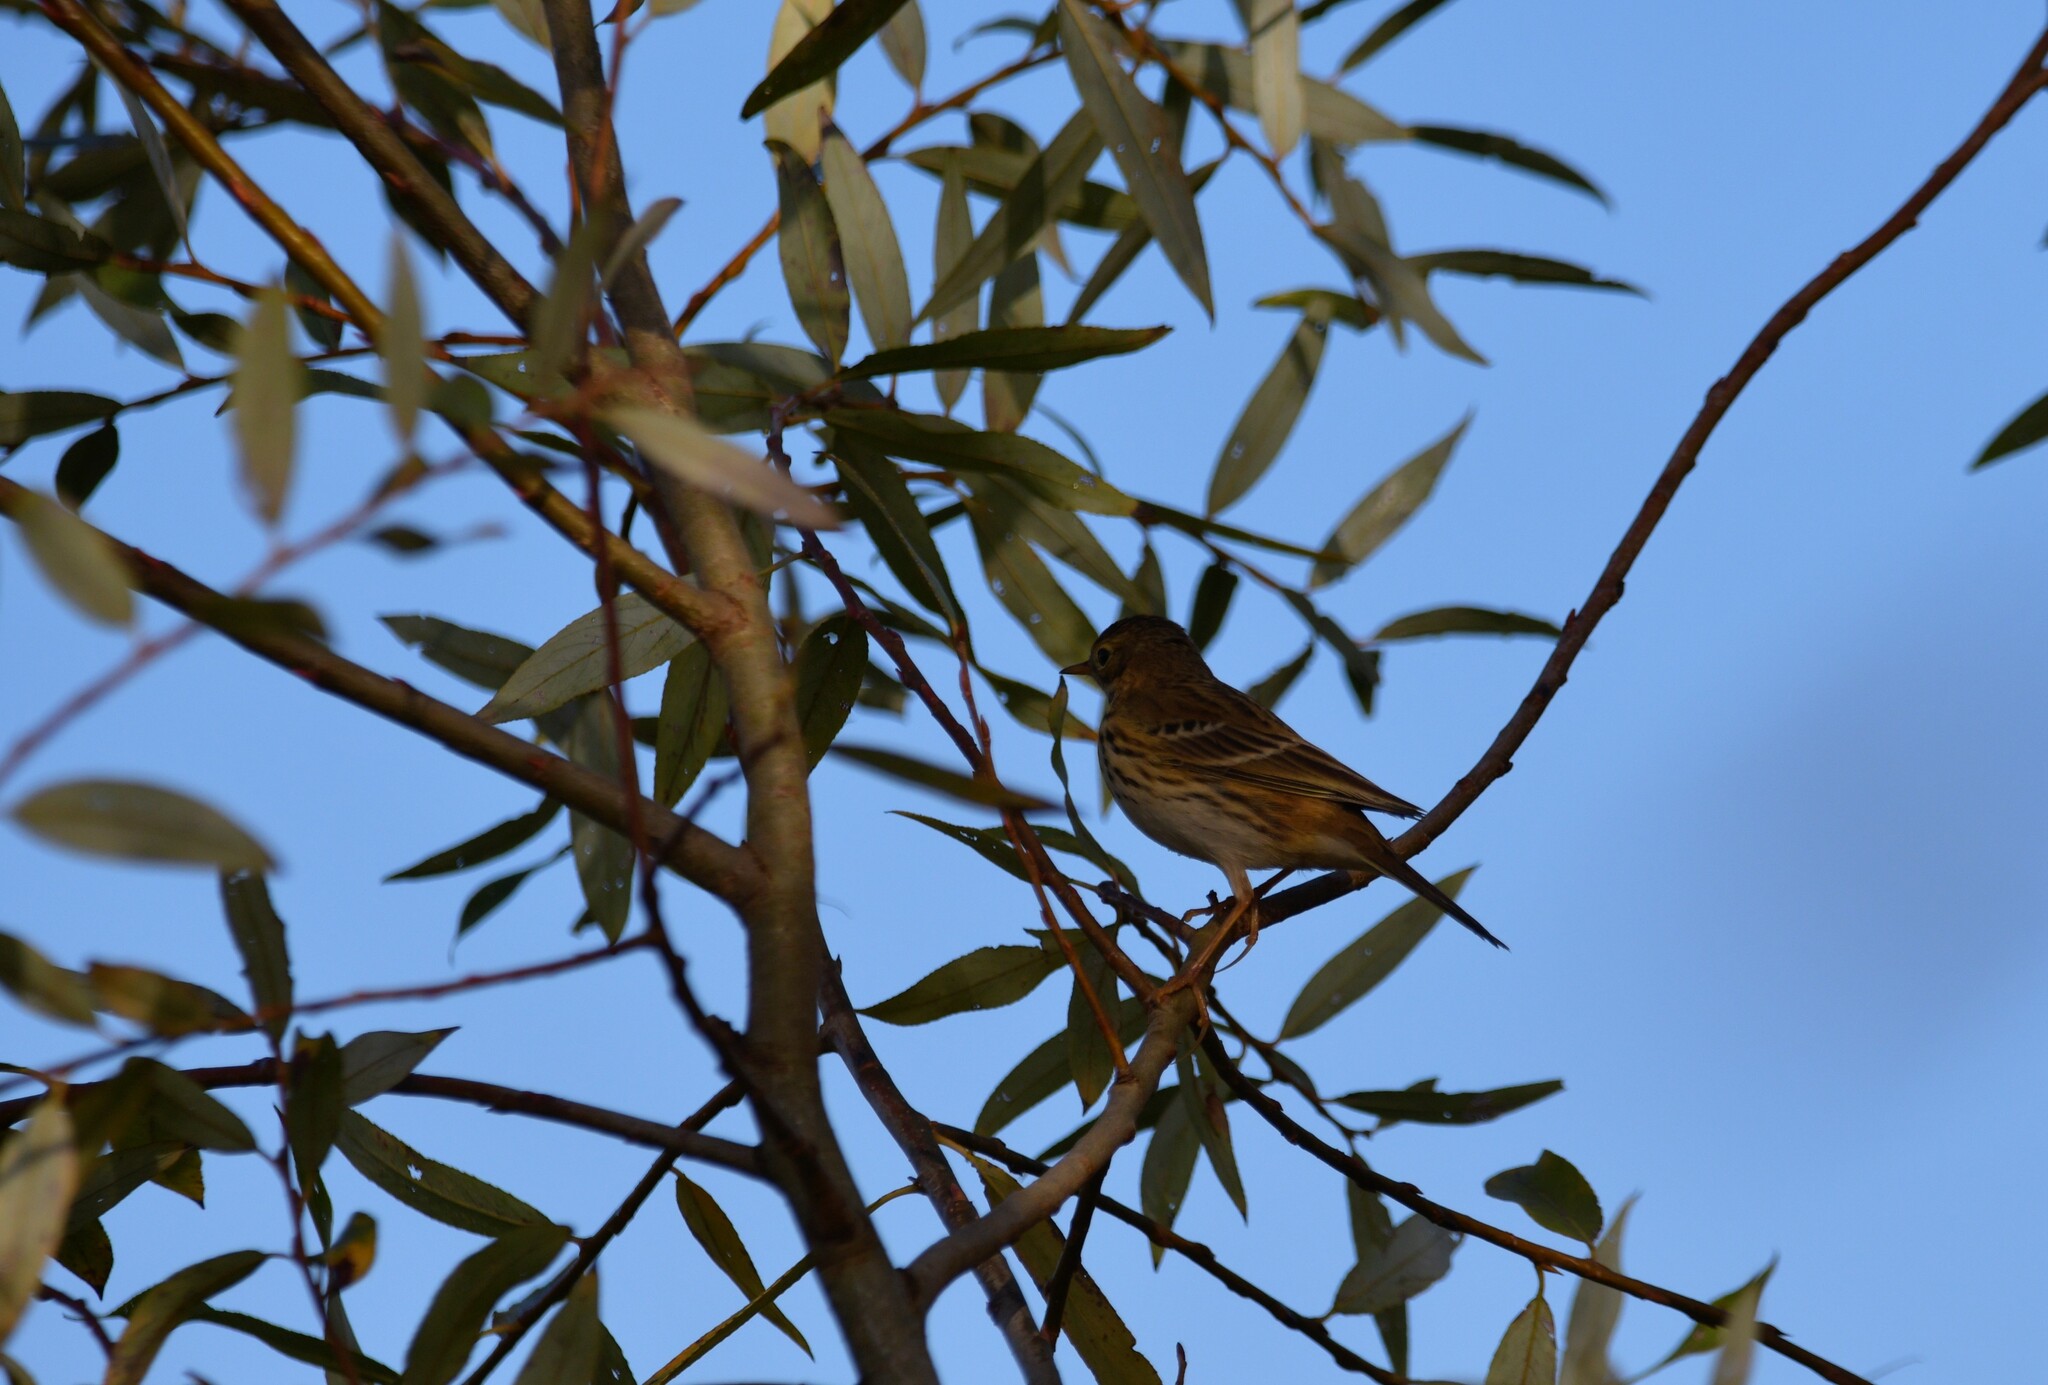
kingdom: Animalia
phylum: Chordata
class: Aves
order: Passeriformes
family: Motacillidae
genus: Anthus
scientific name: Anthus pratensis
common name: Meadow pipit
